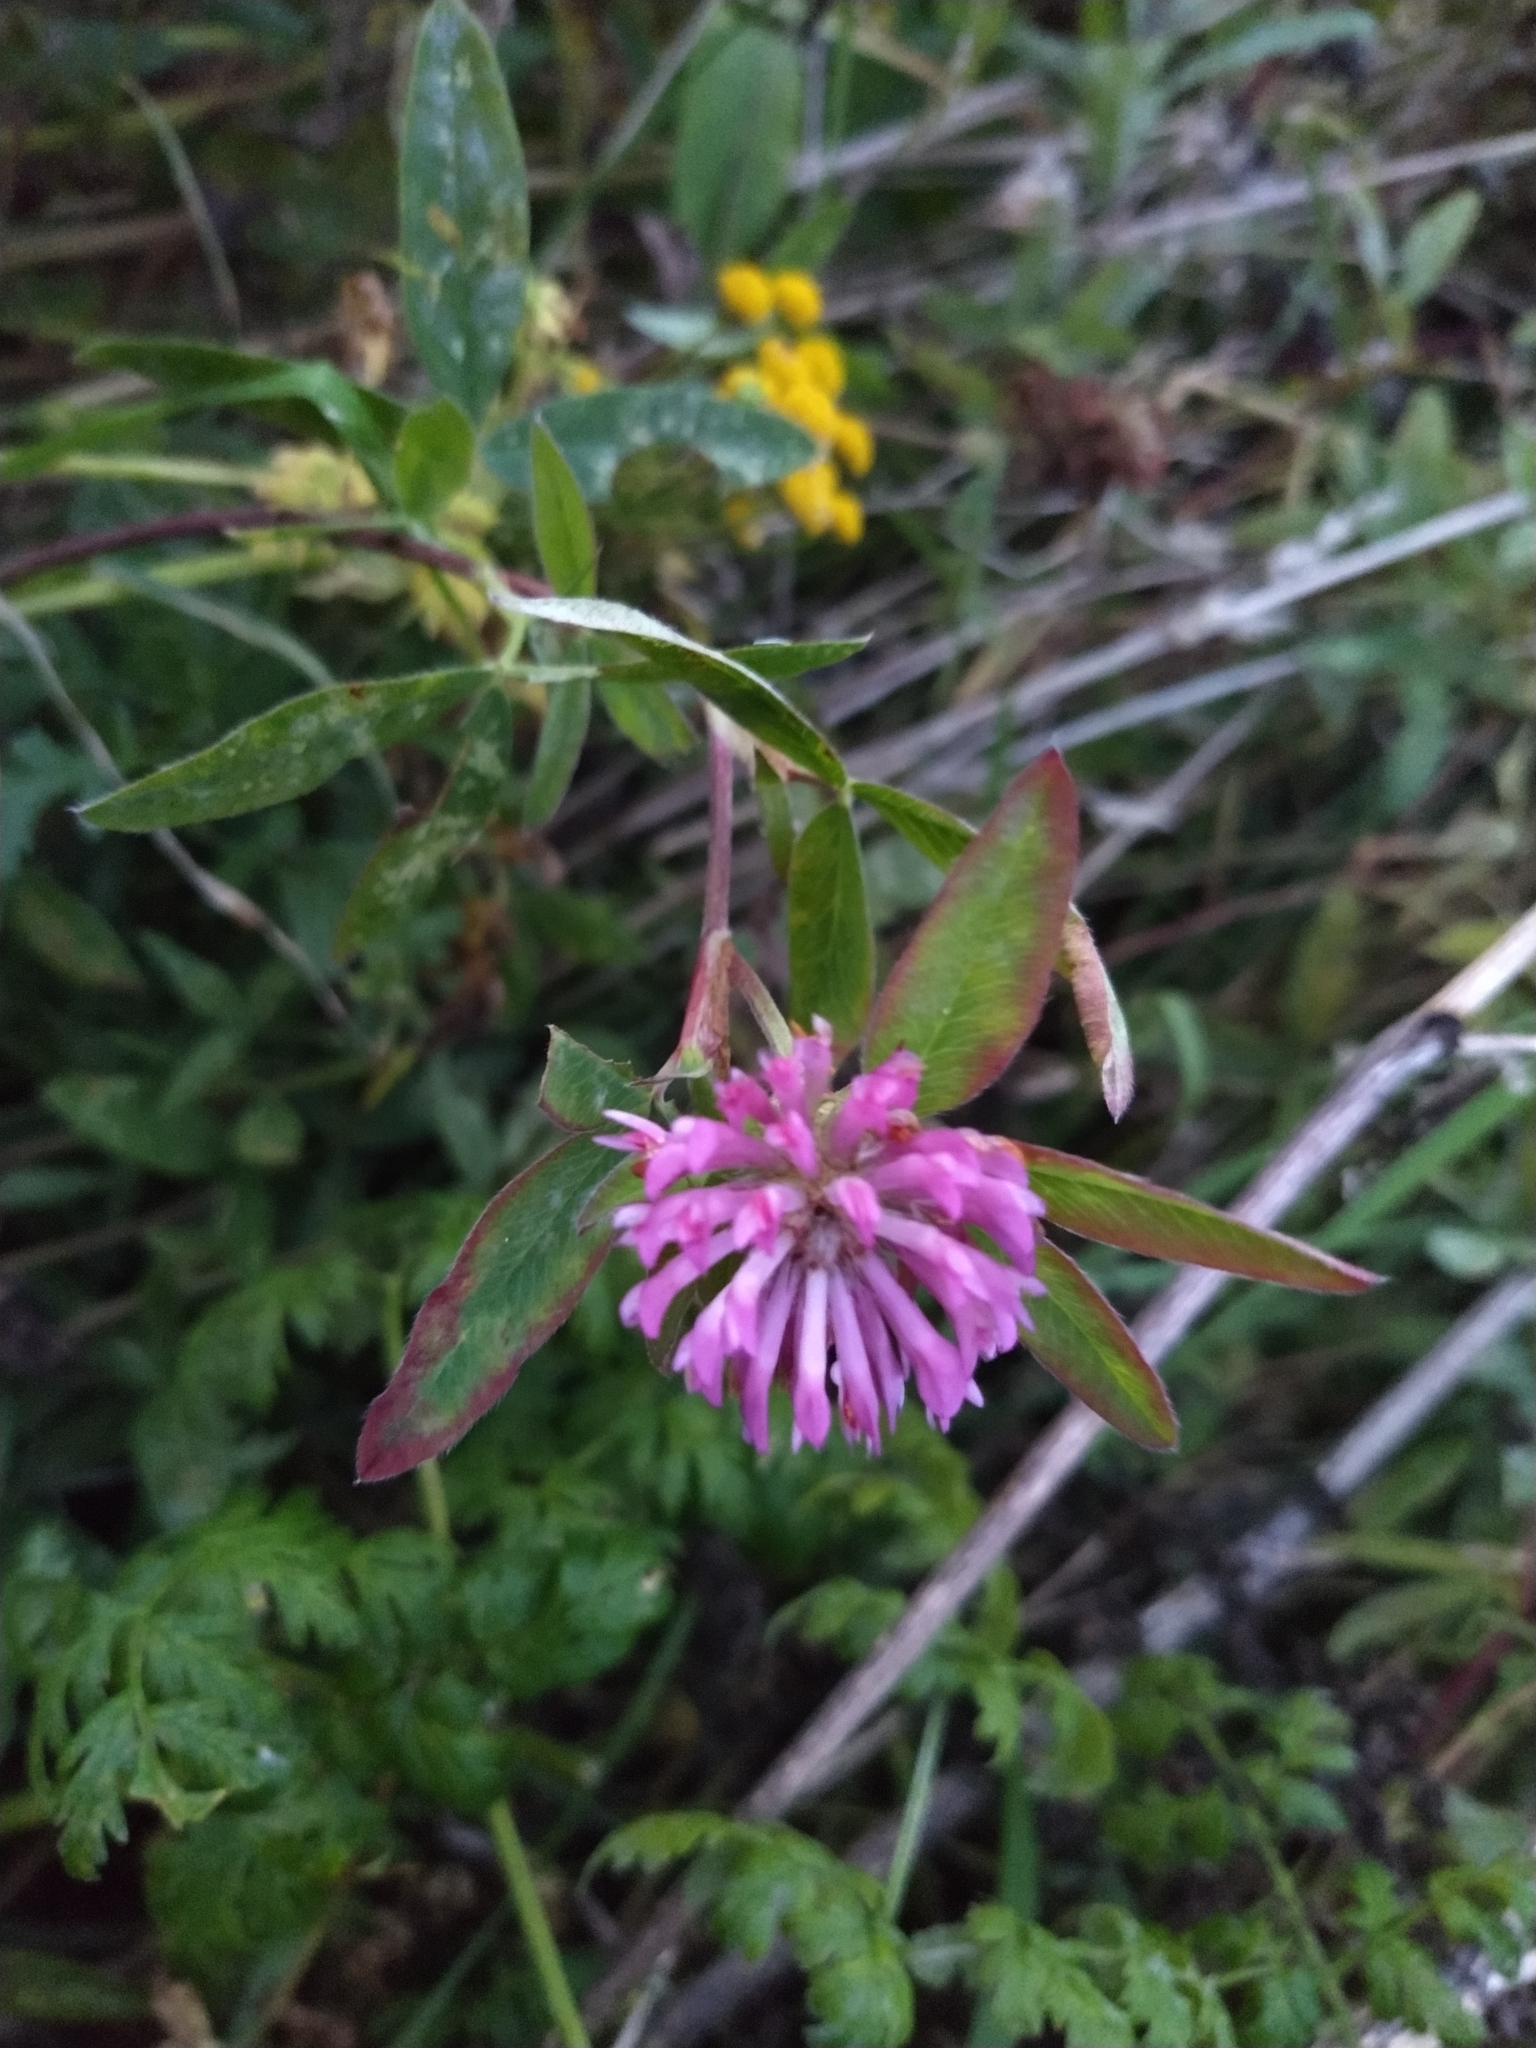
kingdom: Plantae
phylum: Tracheophyta
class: Magnoliopsida
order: Fabales
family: Fabaceae
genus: Trifolium
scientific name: Trifolium medium
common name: Zigzag clover
